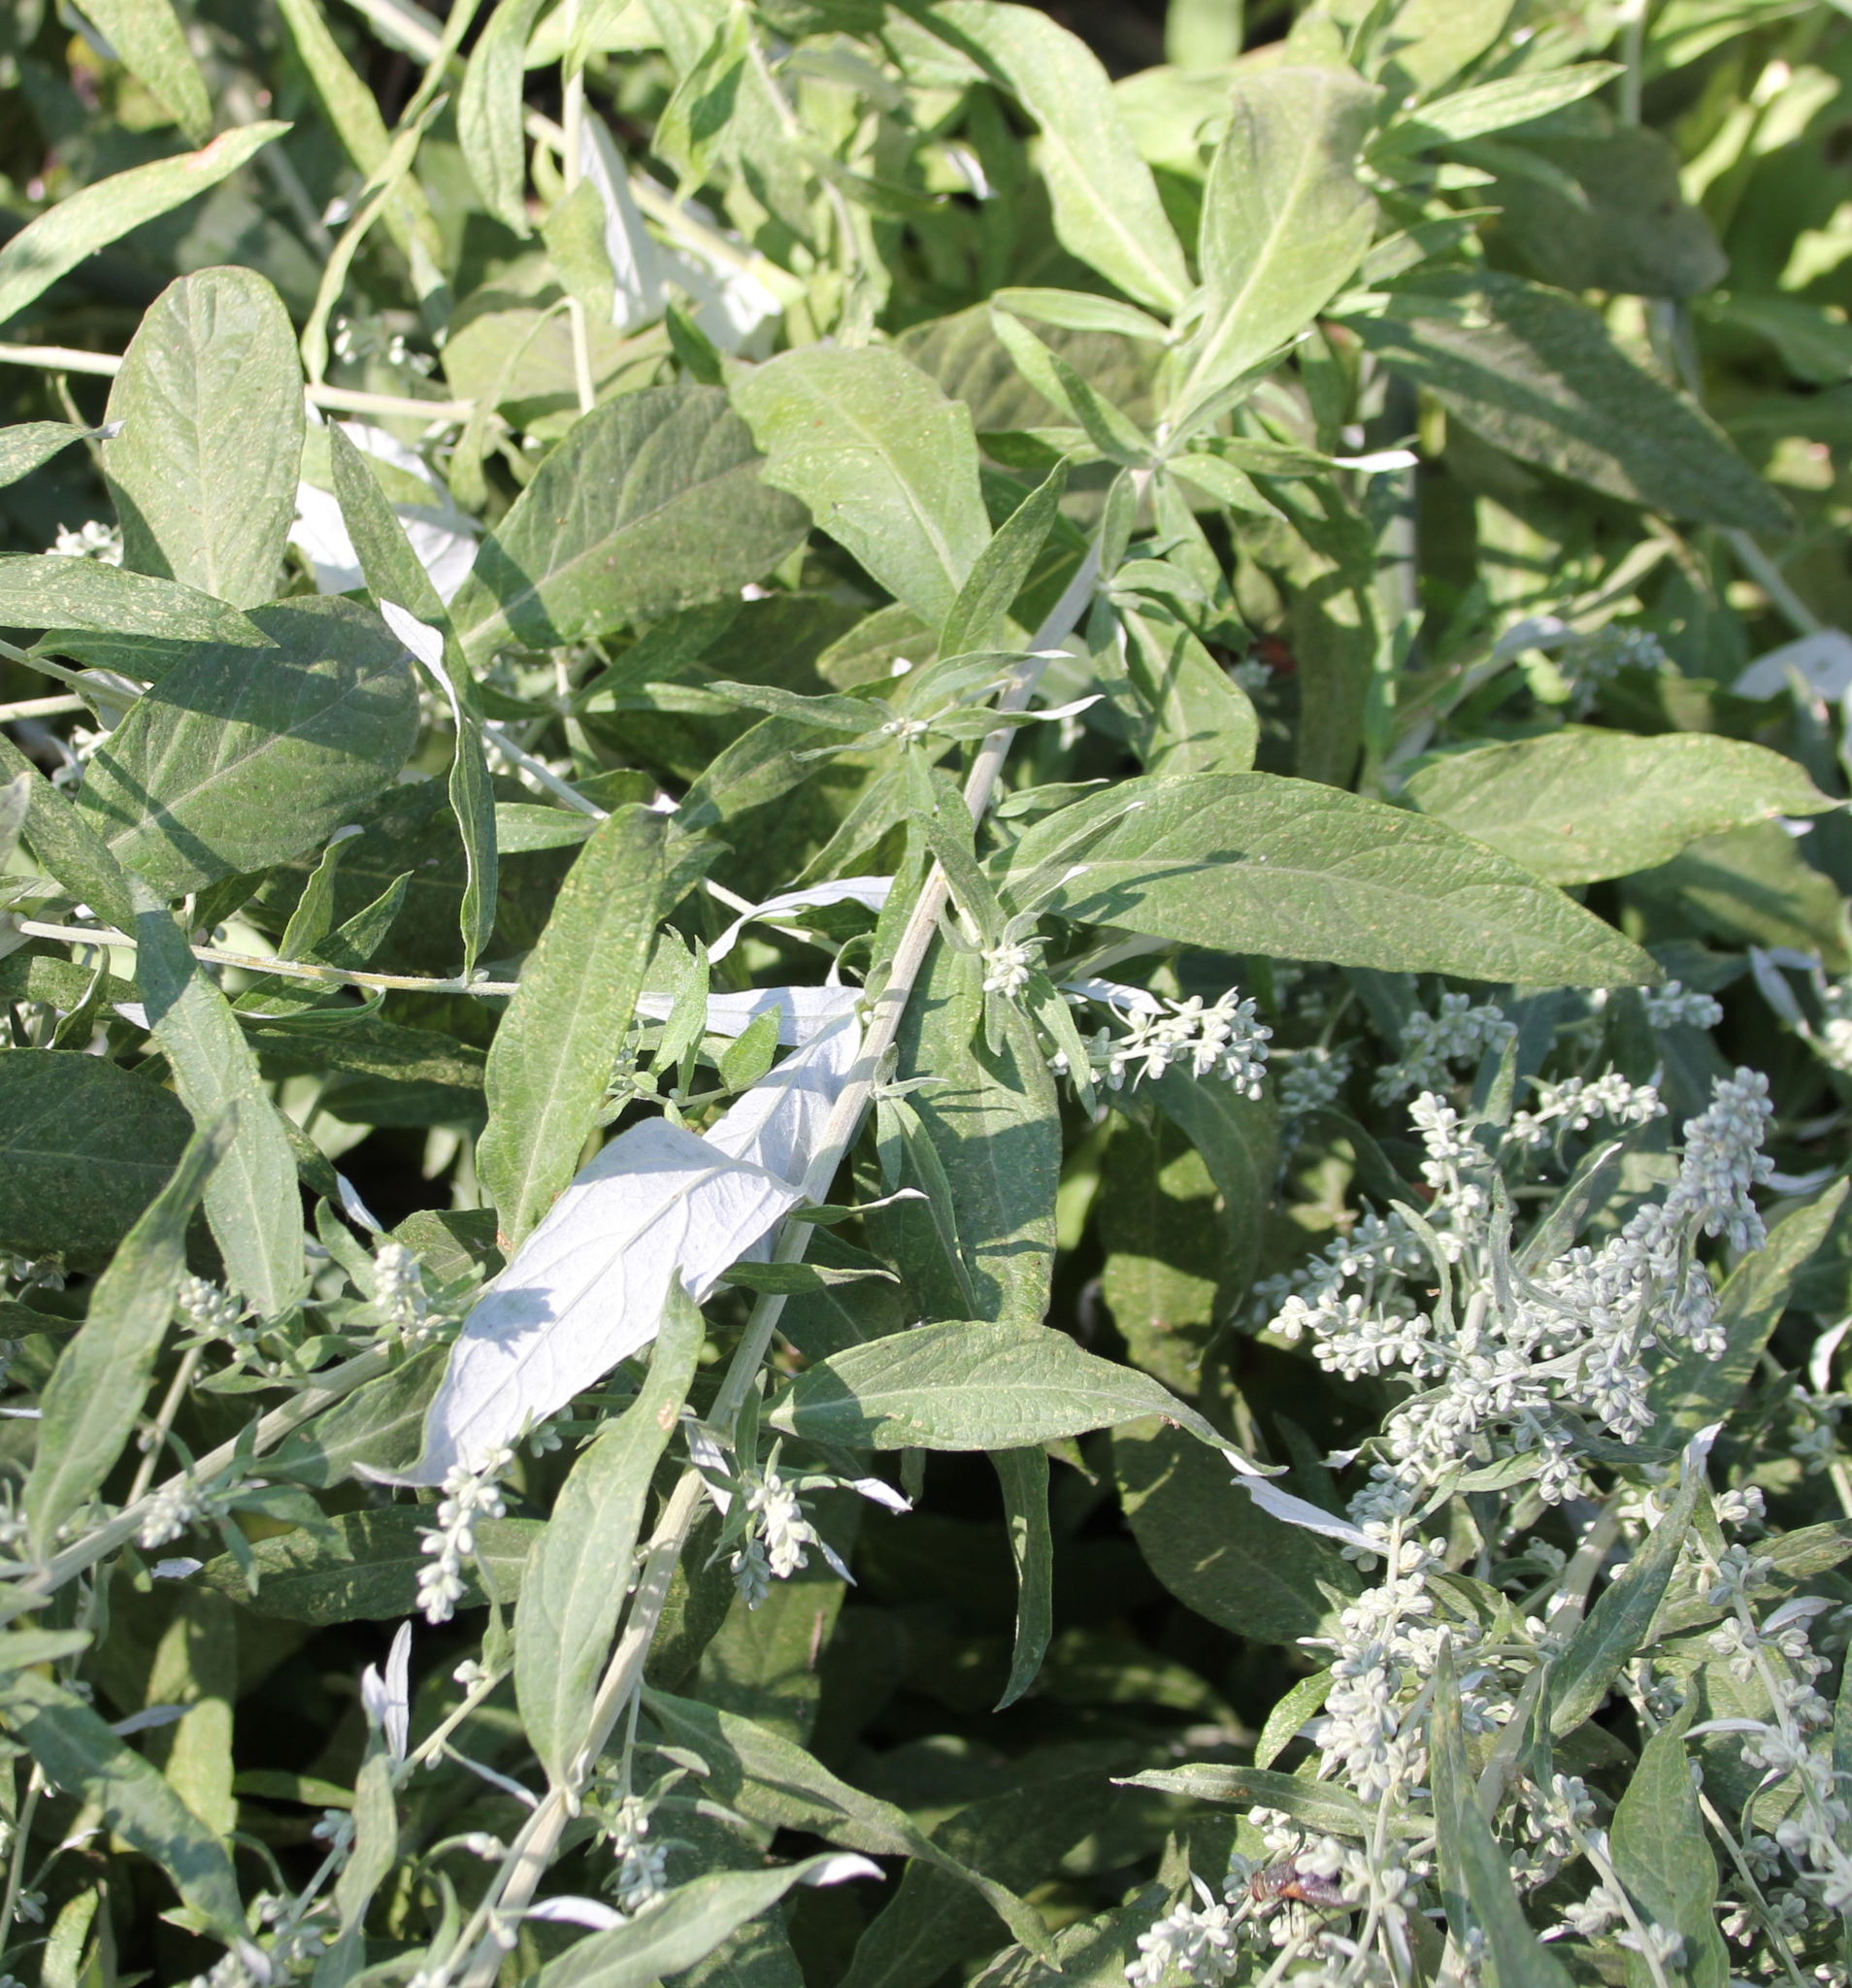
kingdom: Plantae
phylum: Tracheophyta
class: Magnoliopsida
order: Asterales
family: Asteraceae
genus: Artemisia
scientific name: Artemisia douglasiana
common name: Northwest mugwort
